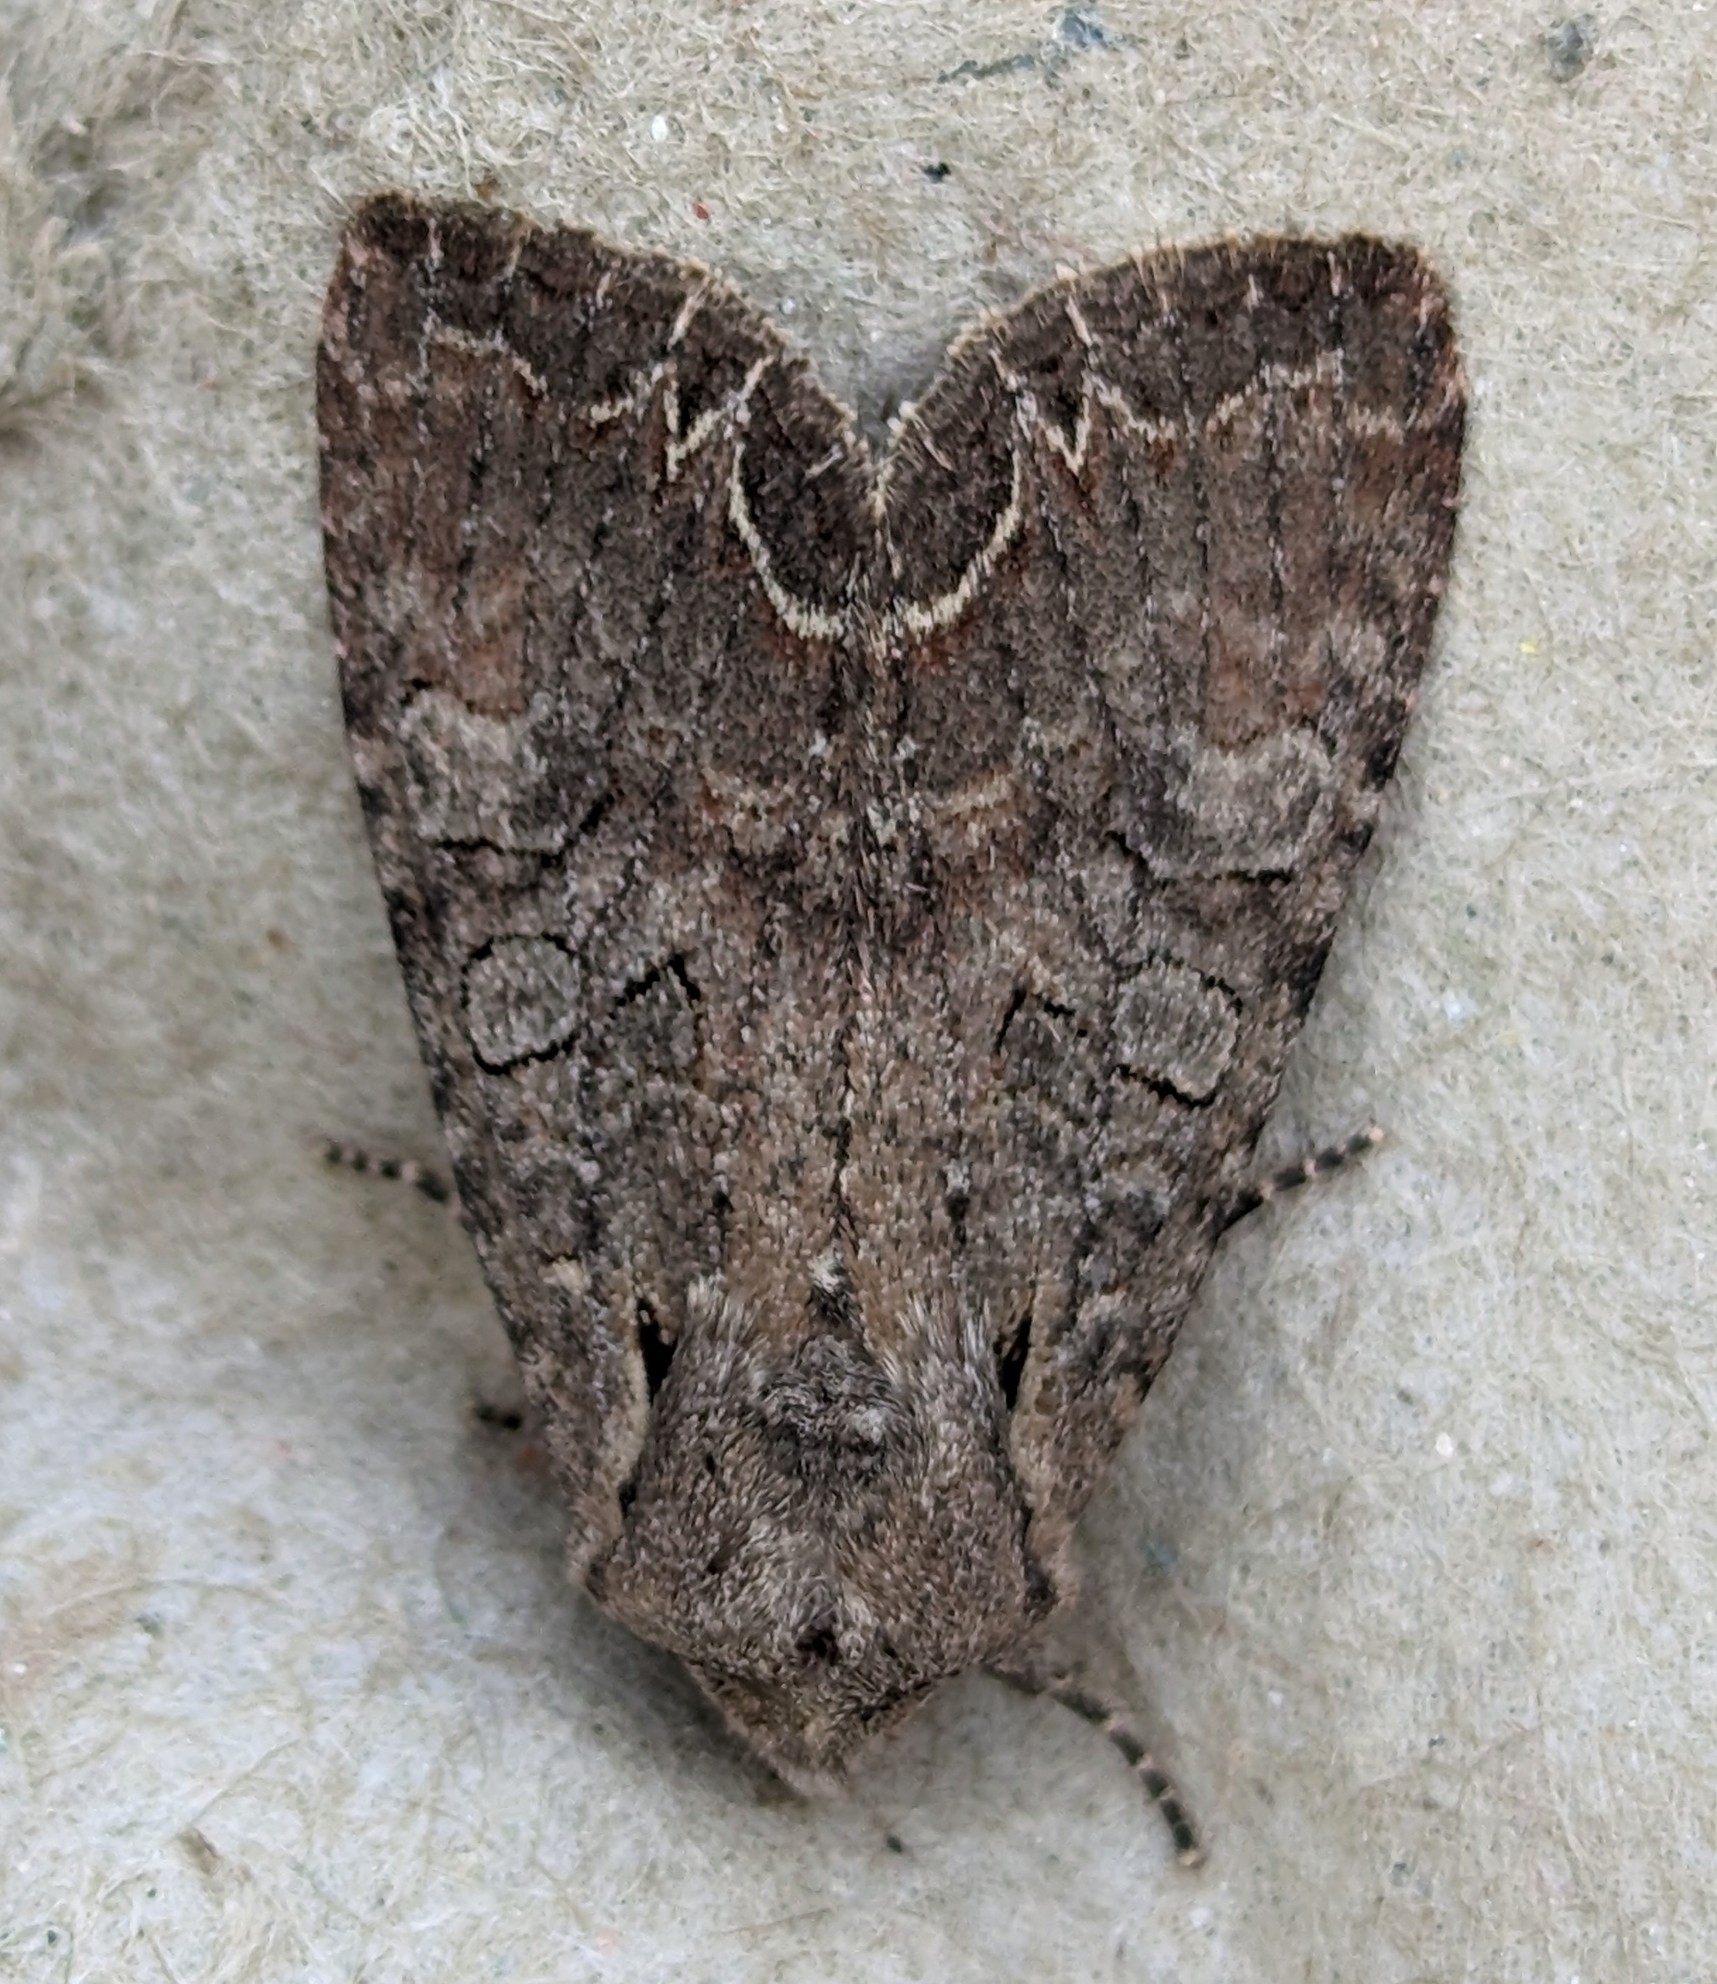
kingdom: Animalia
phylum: Arthropoda
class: Insecta
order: Lepidoptera
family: Noctuidae
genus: Lacanobia
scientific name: Lacanobia radix
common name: Garden arches moth
